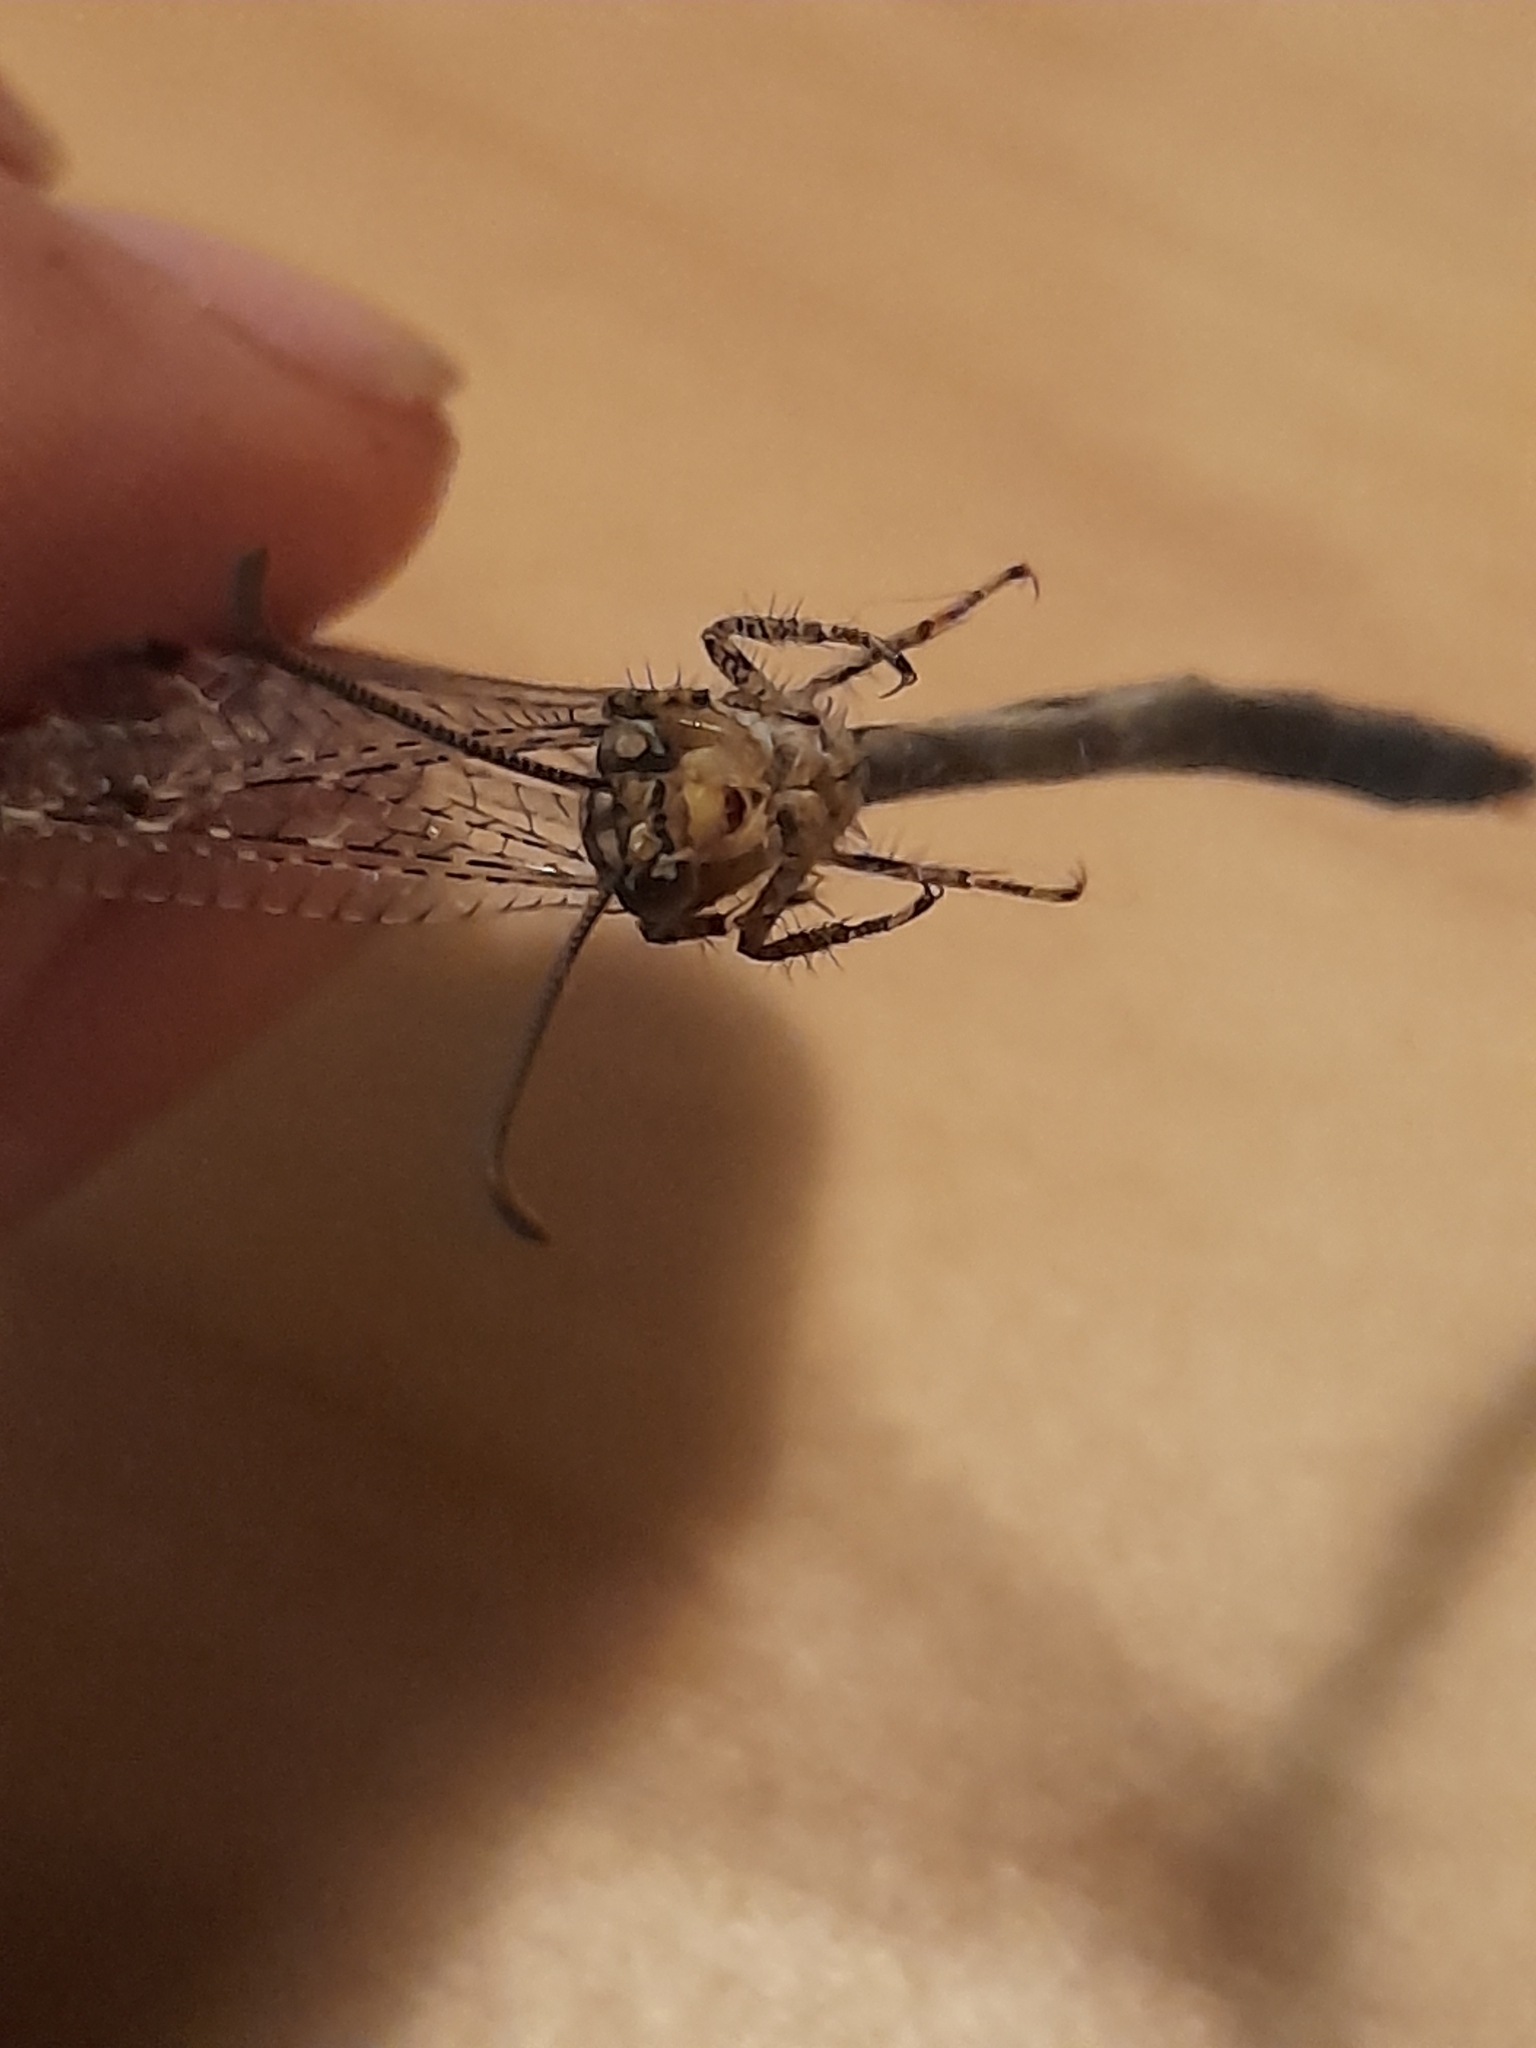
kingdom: Animalia
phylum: Arthropoda
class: Insecta
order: Neuroptera
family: Myrmeleontidae
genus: Distoleon
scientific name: Distoleon tetragrammicus
